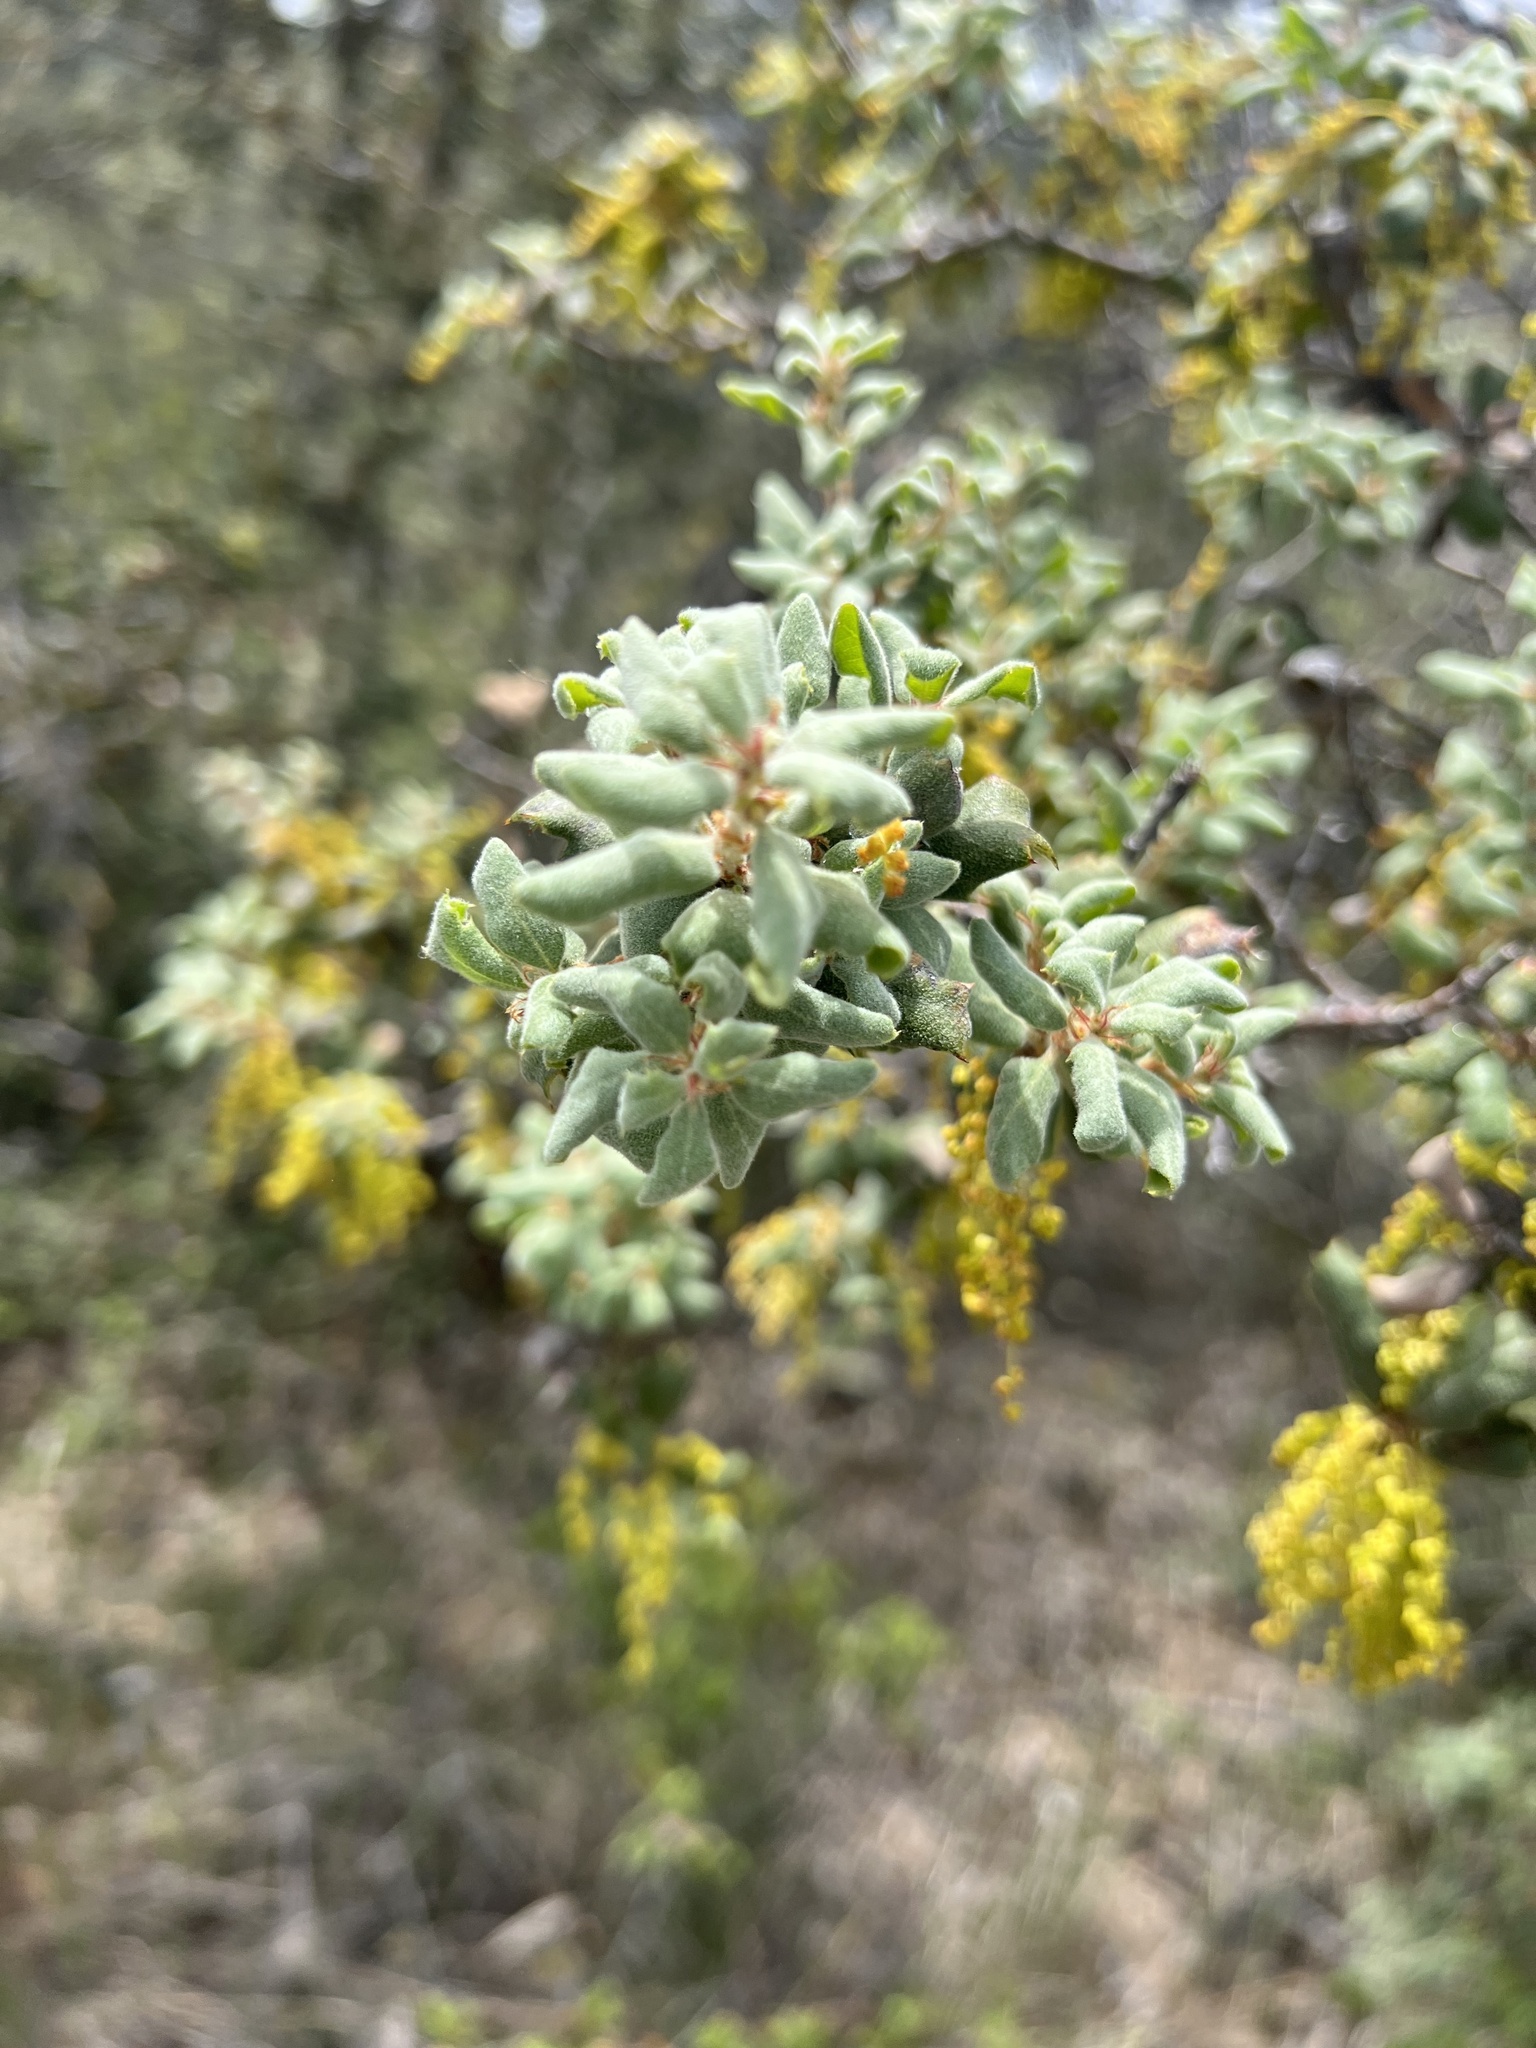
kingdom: Plantae
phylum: Tracheophyta
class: Magnoliopsida
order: Fagales
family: Fagaceae
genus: Quercus
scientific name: Quercus durata
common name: Leather oak
